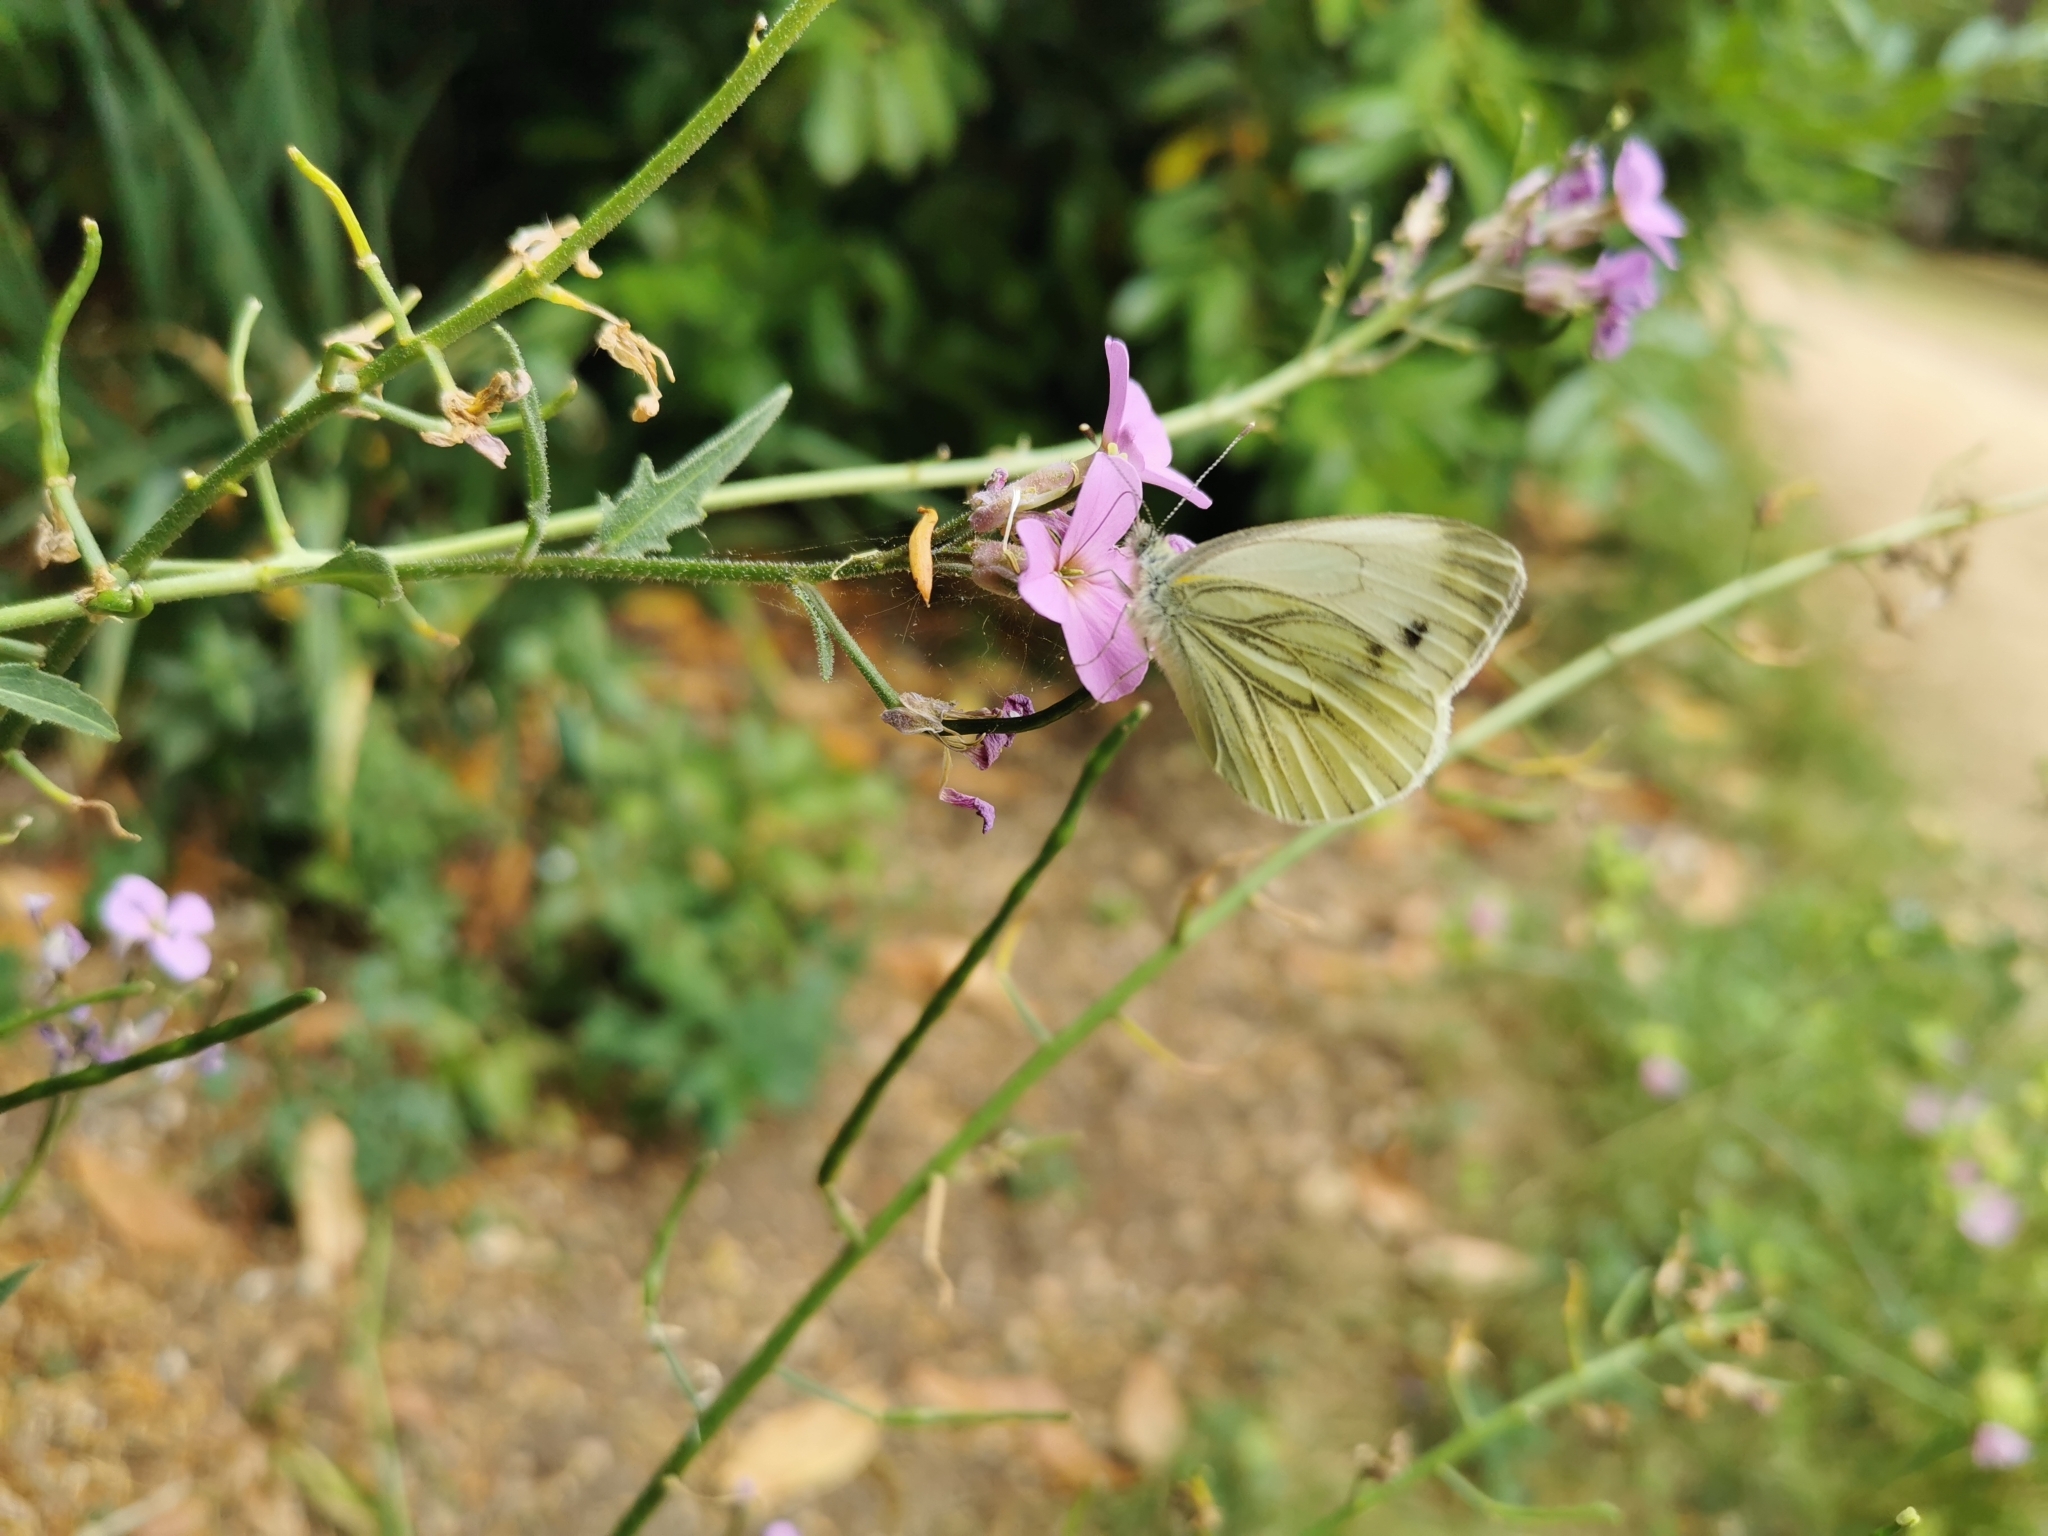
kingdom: Animalia
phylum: Arthropoda
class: Insecta
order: Lepidoptera
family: Pieridae
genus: Pieris
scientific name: Pieris napi
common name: Green-veined white
